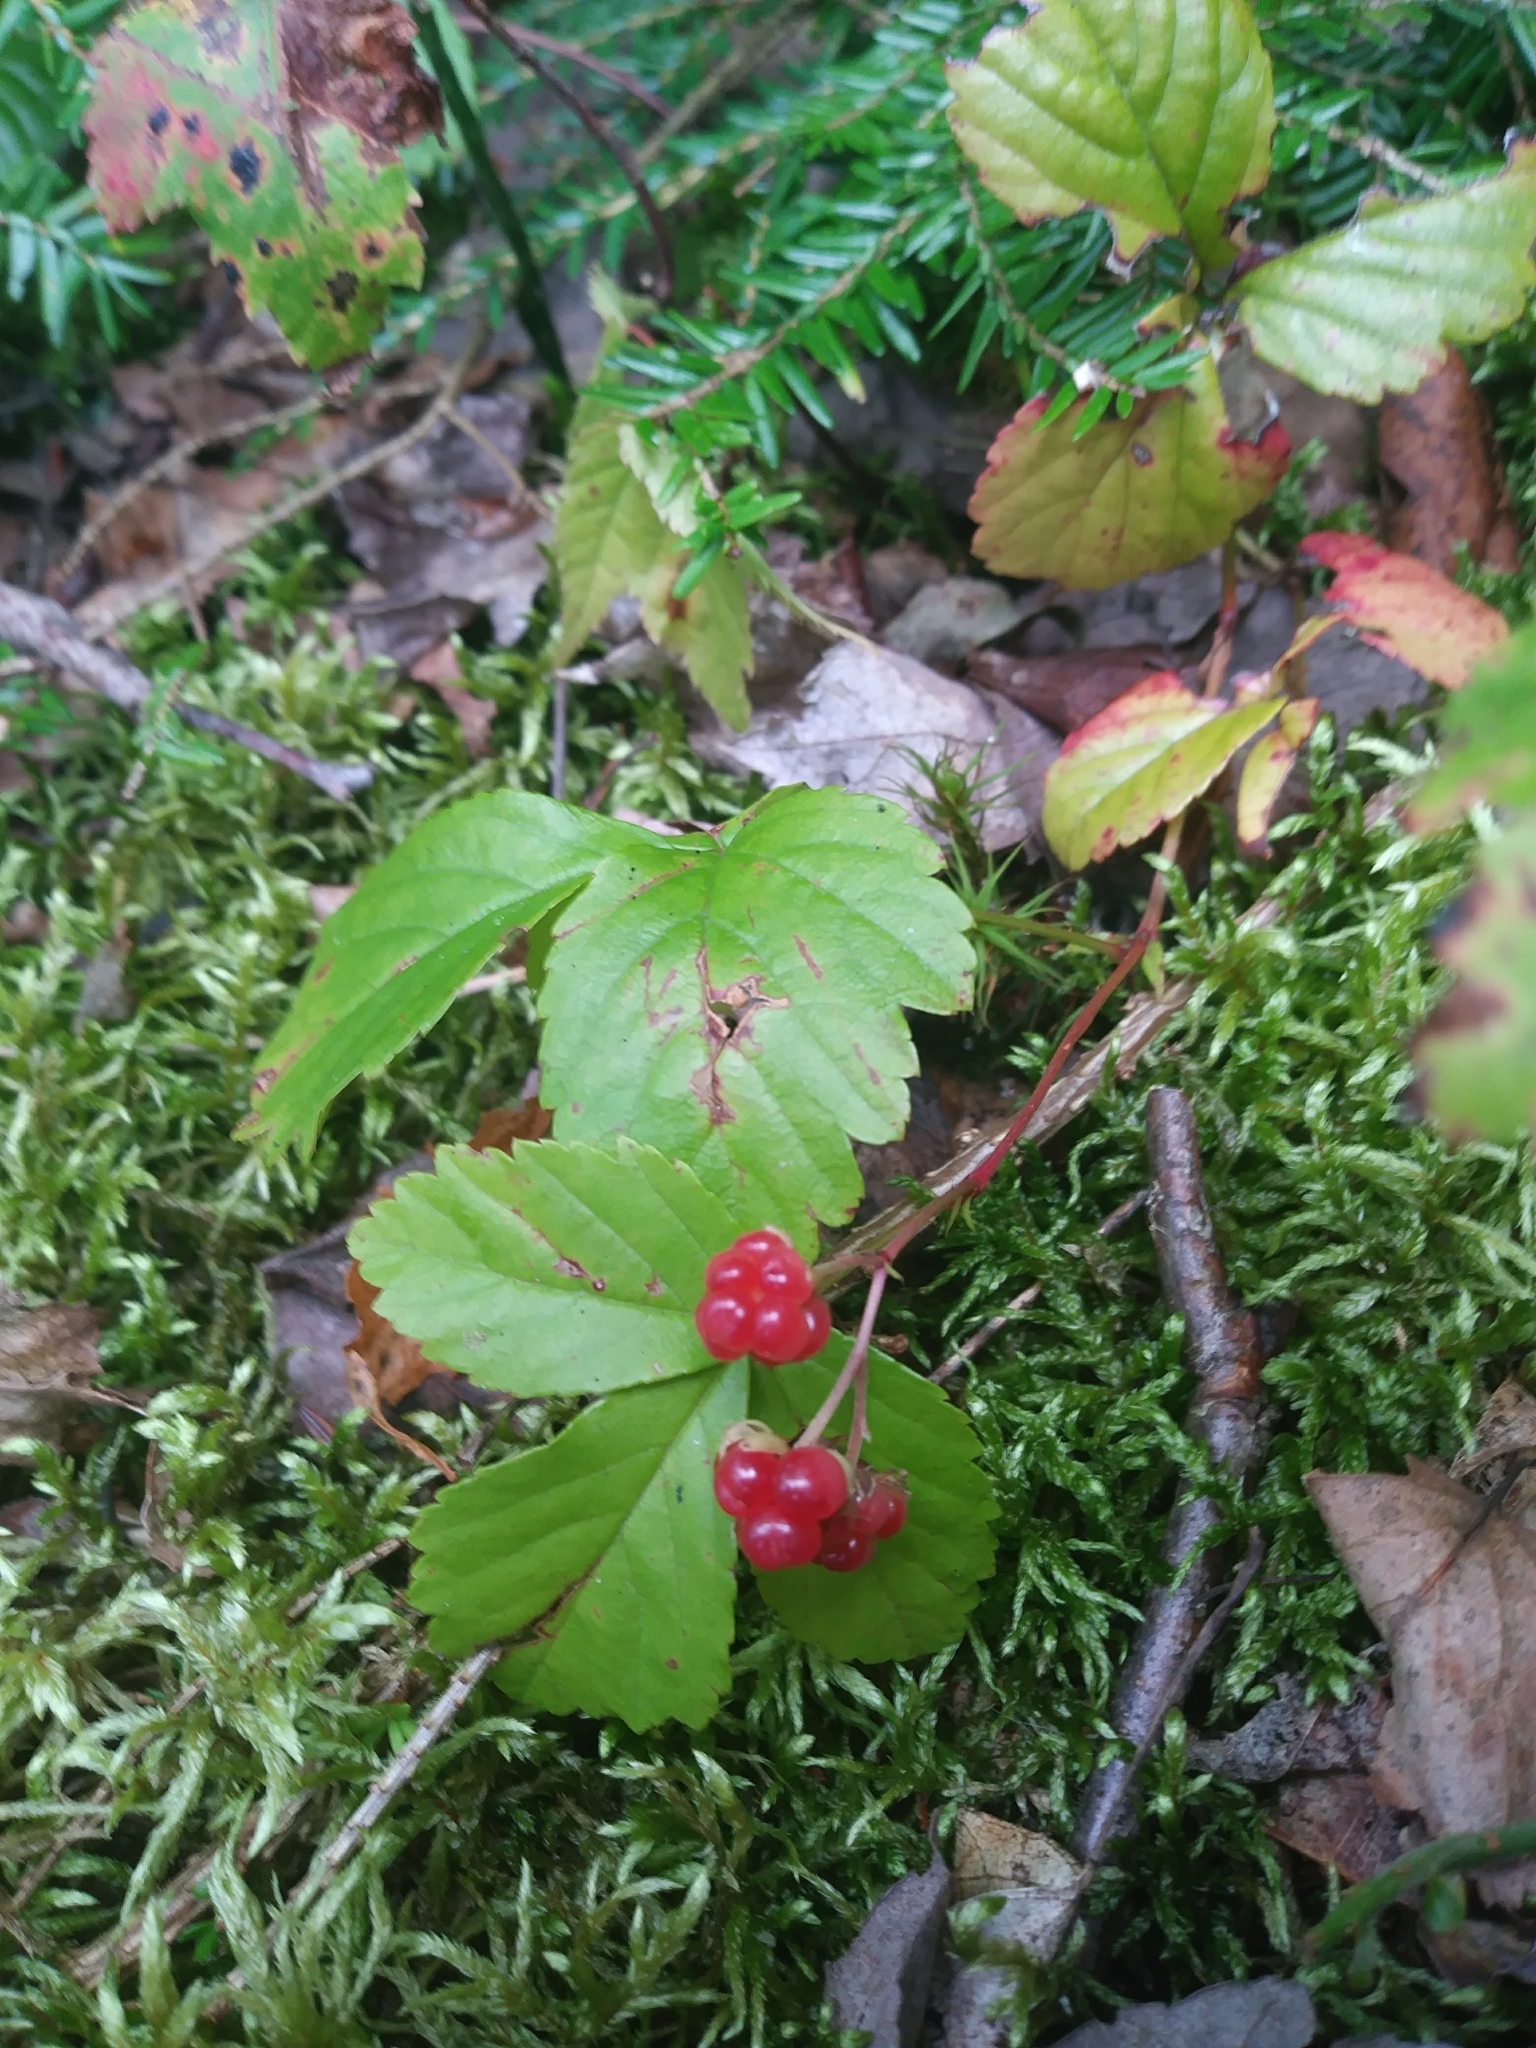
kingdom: Plantae
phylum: Tracheophyta
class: Magnoliopsida
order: Rosales
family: Rosaceae
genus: Rubus
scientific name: Rubus pubescens
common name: Dwarf raspberry
